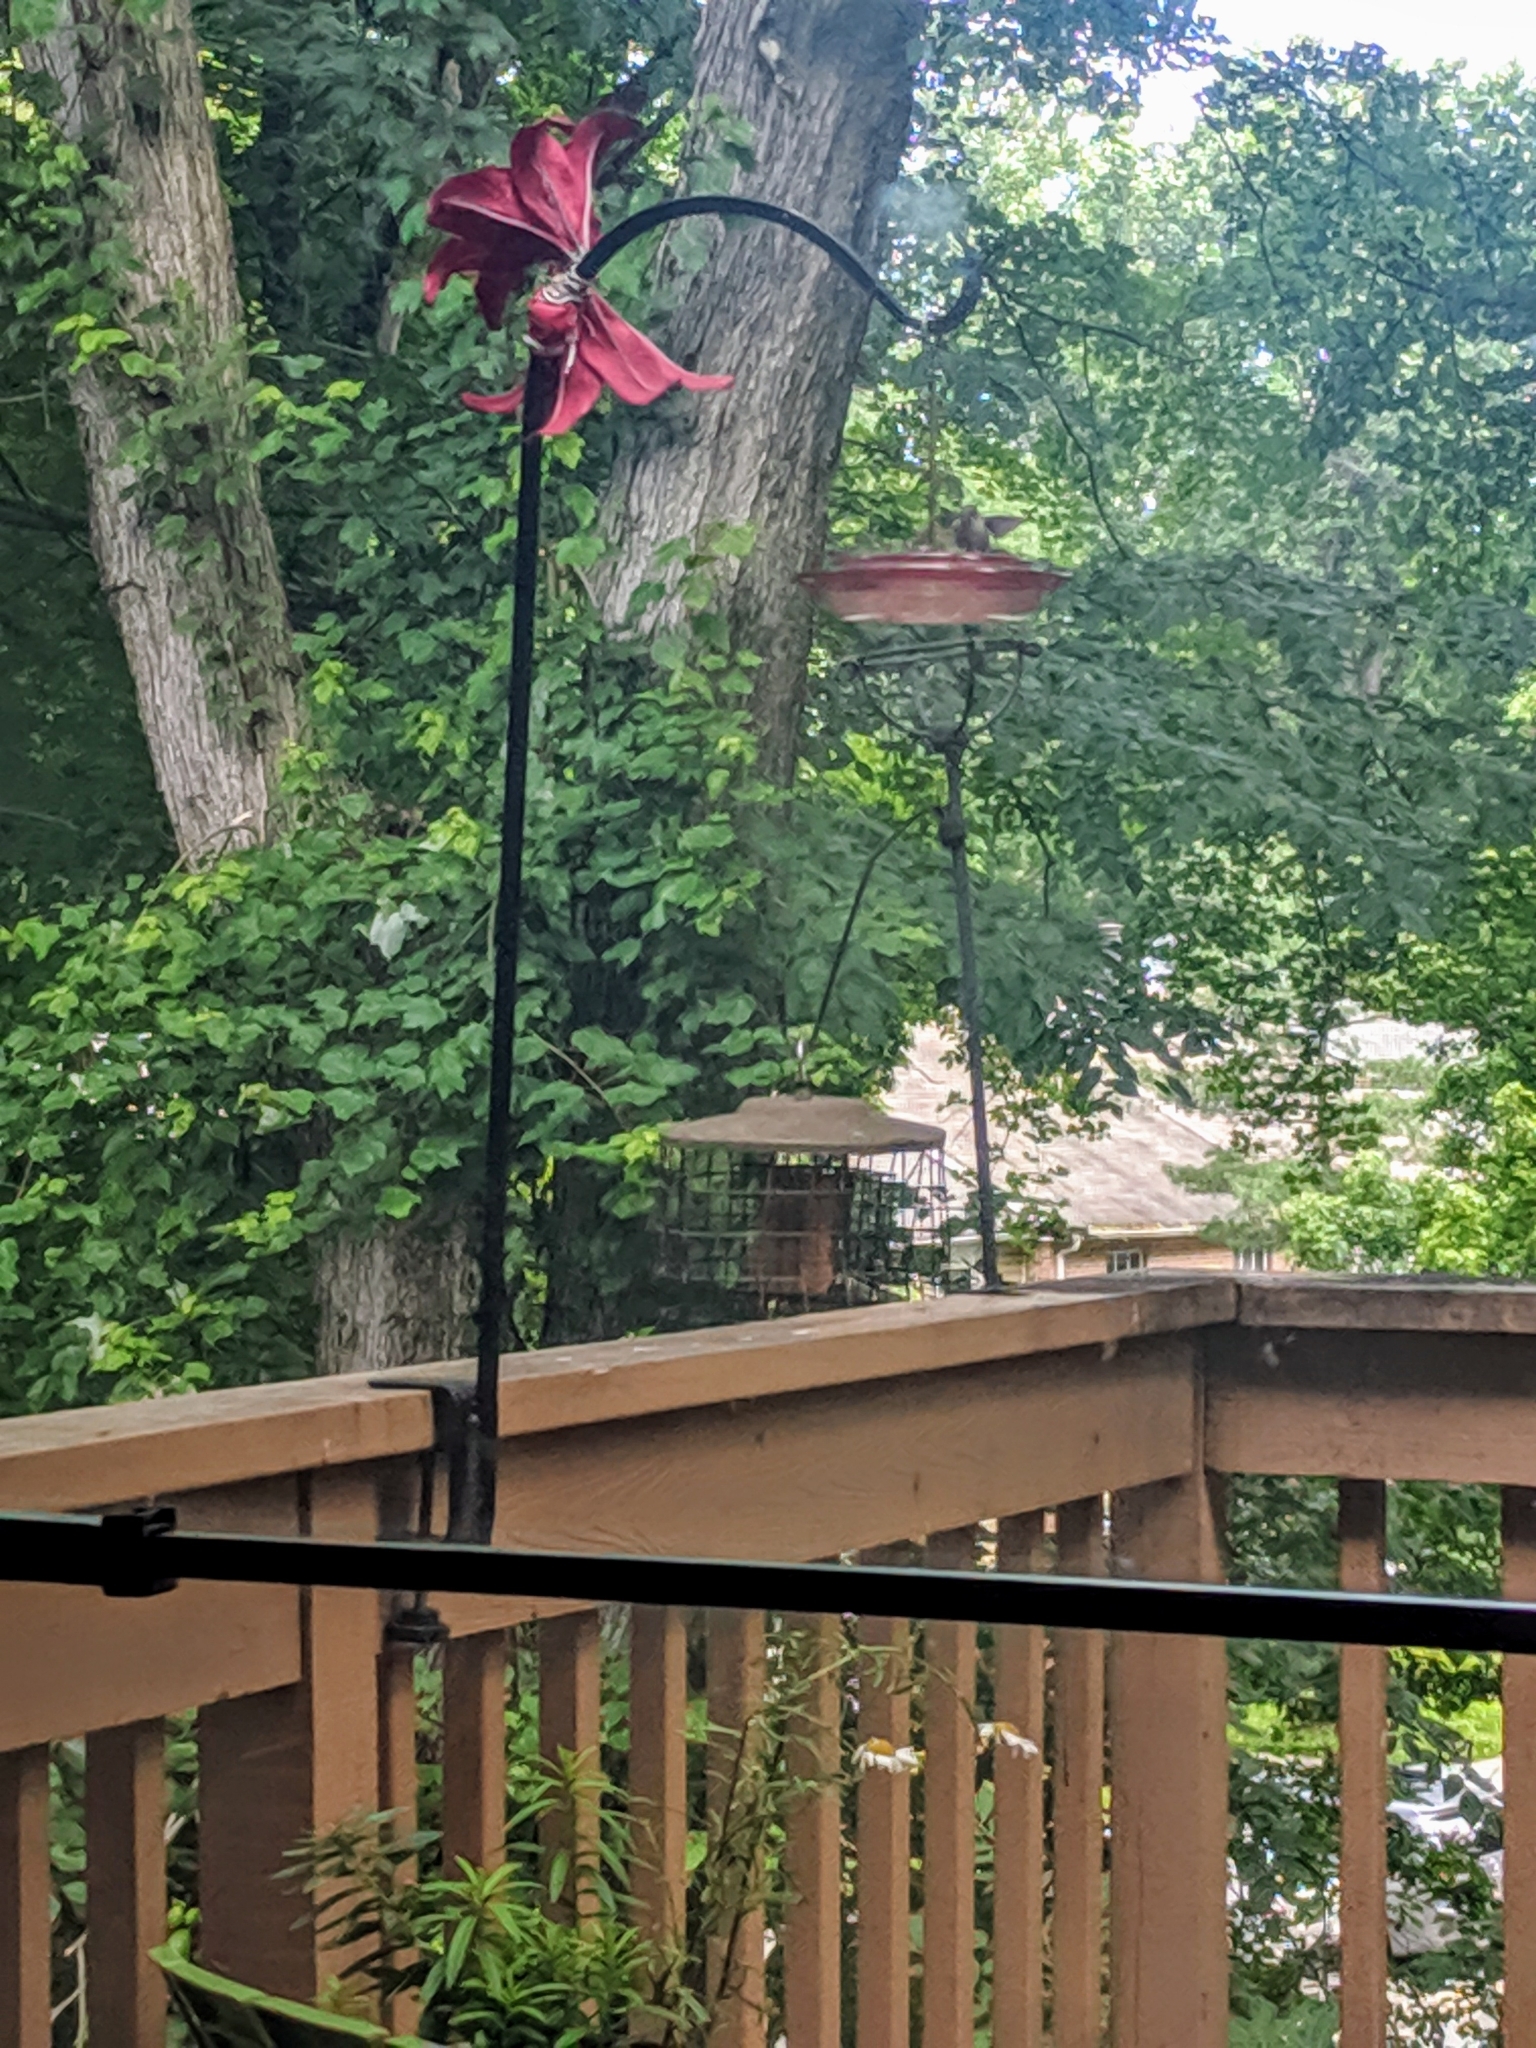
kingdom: Animalia
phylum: Chordata
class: Aves
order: Apodiformes
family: Trochilidae
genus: Archilochus
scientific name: Archilochus colubris
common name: Ruby-throated hummingbird
